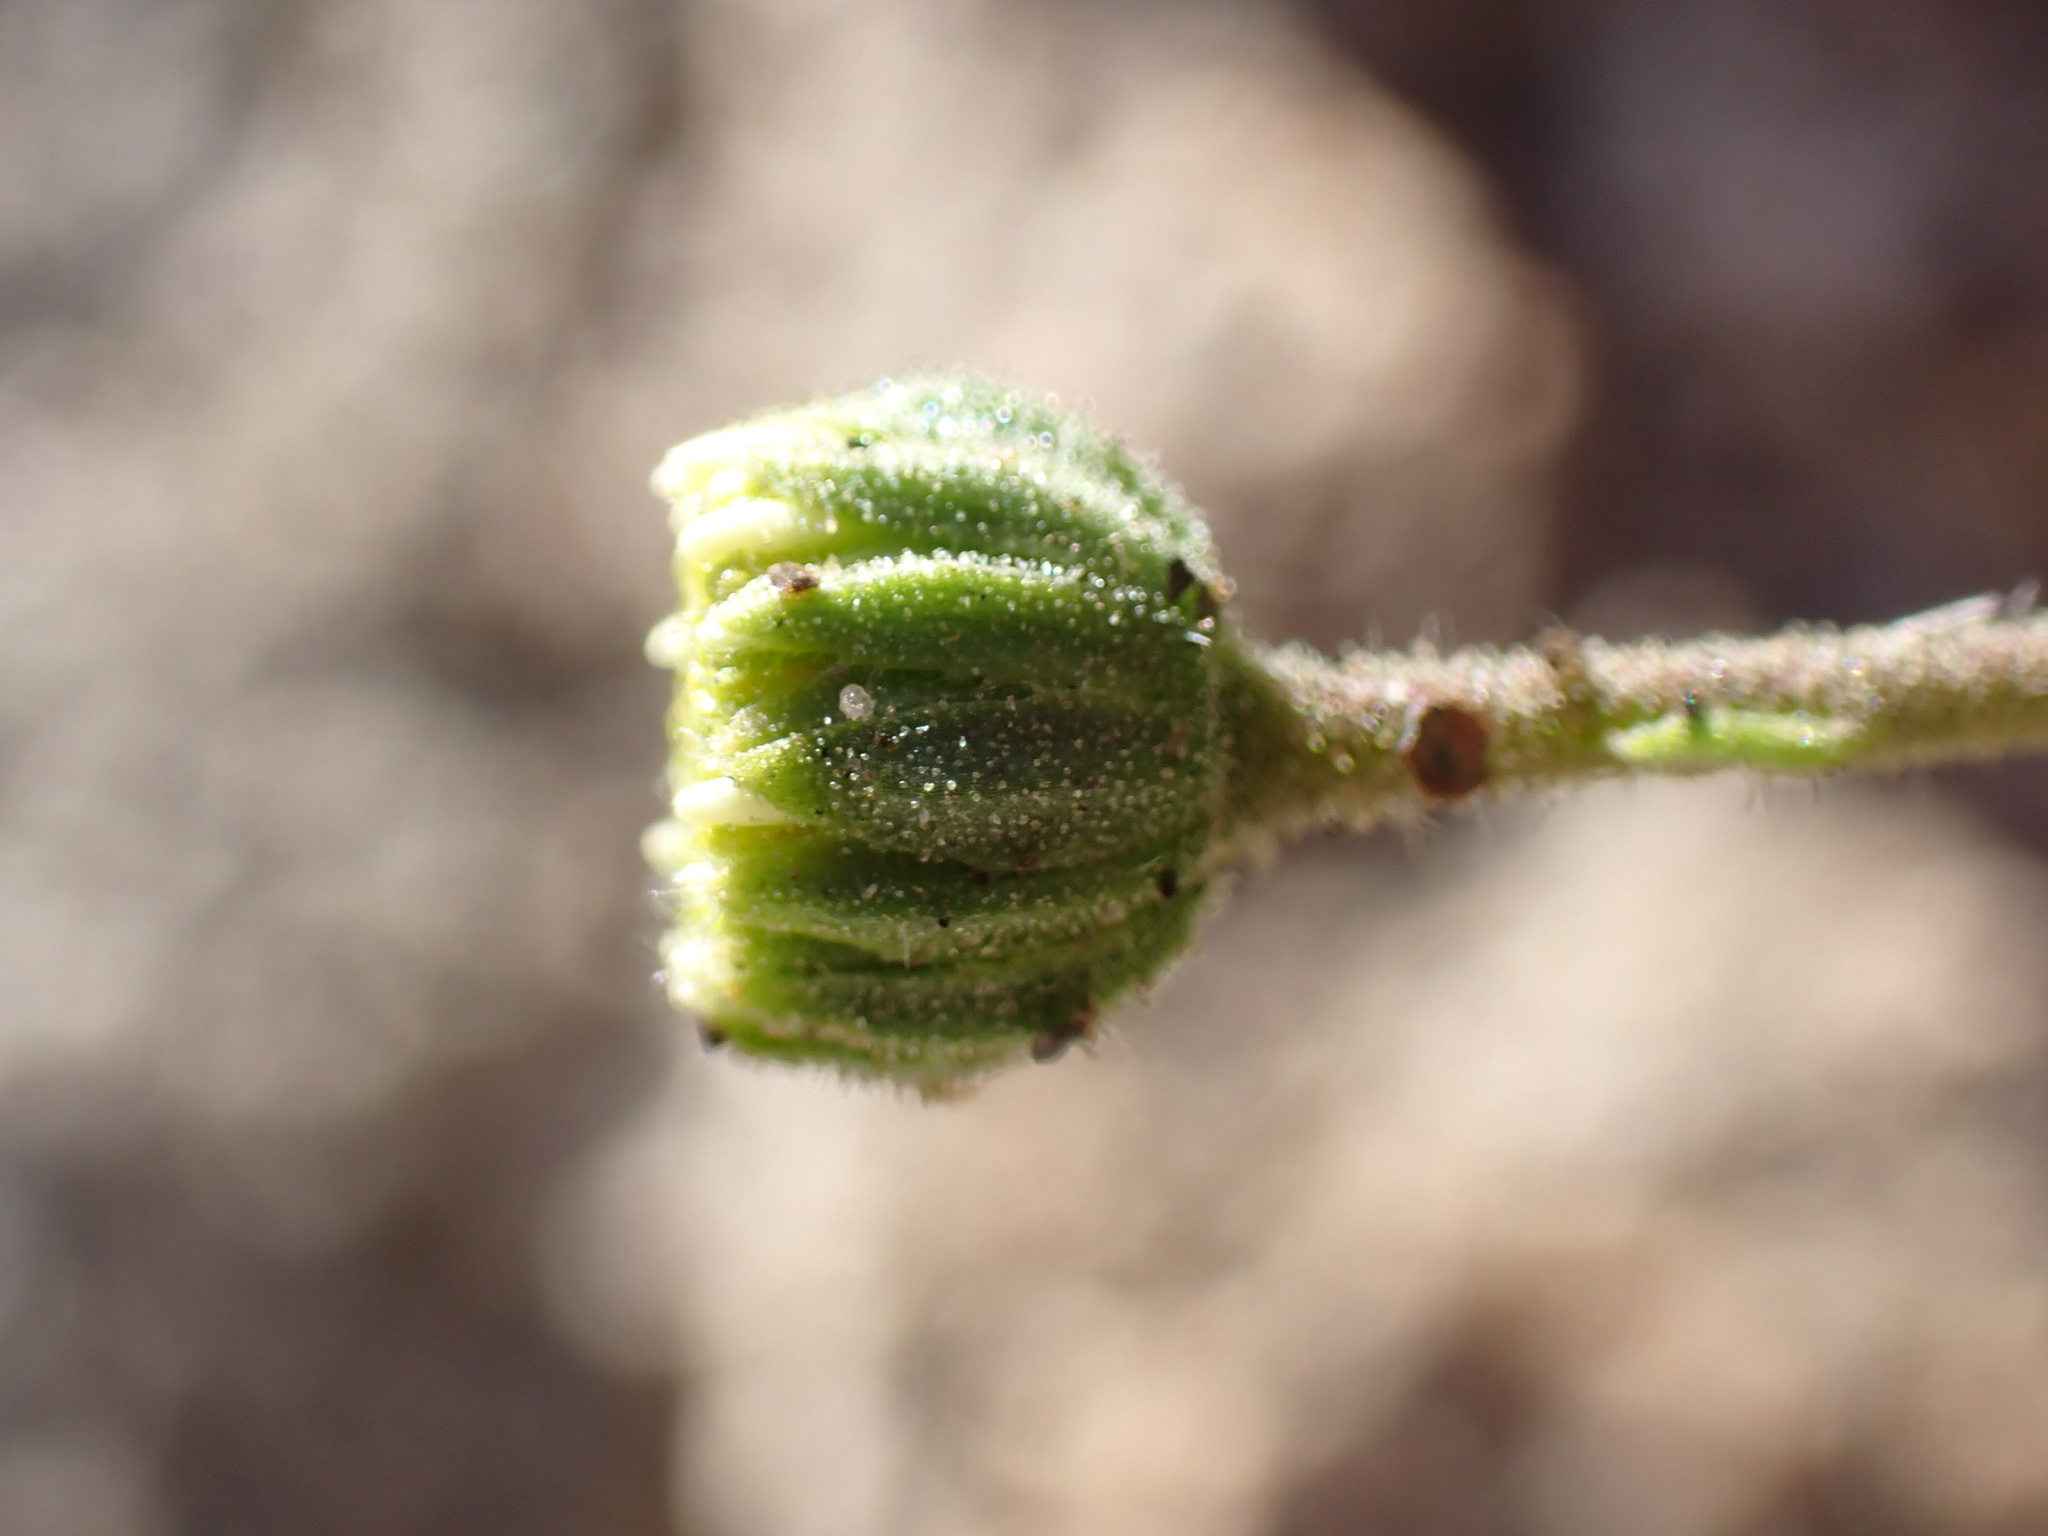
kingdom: Plantae
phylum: Tracheophyta
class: Magnoliopsida
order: Asterales
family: Asteraceae
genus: Laphamia
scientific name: Laphamia emoryi
